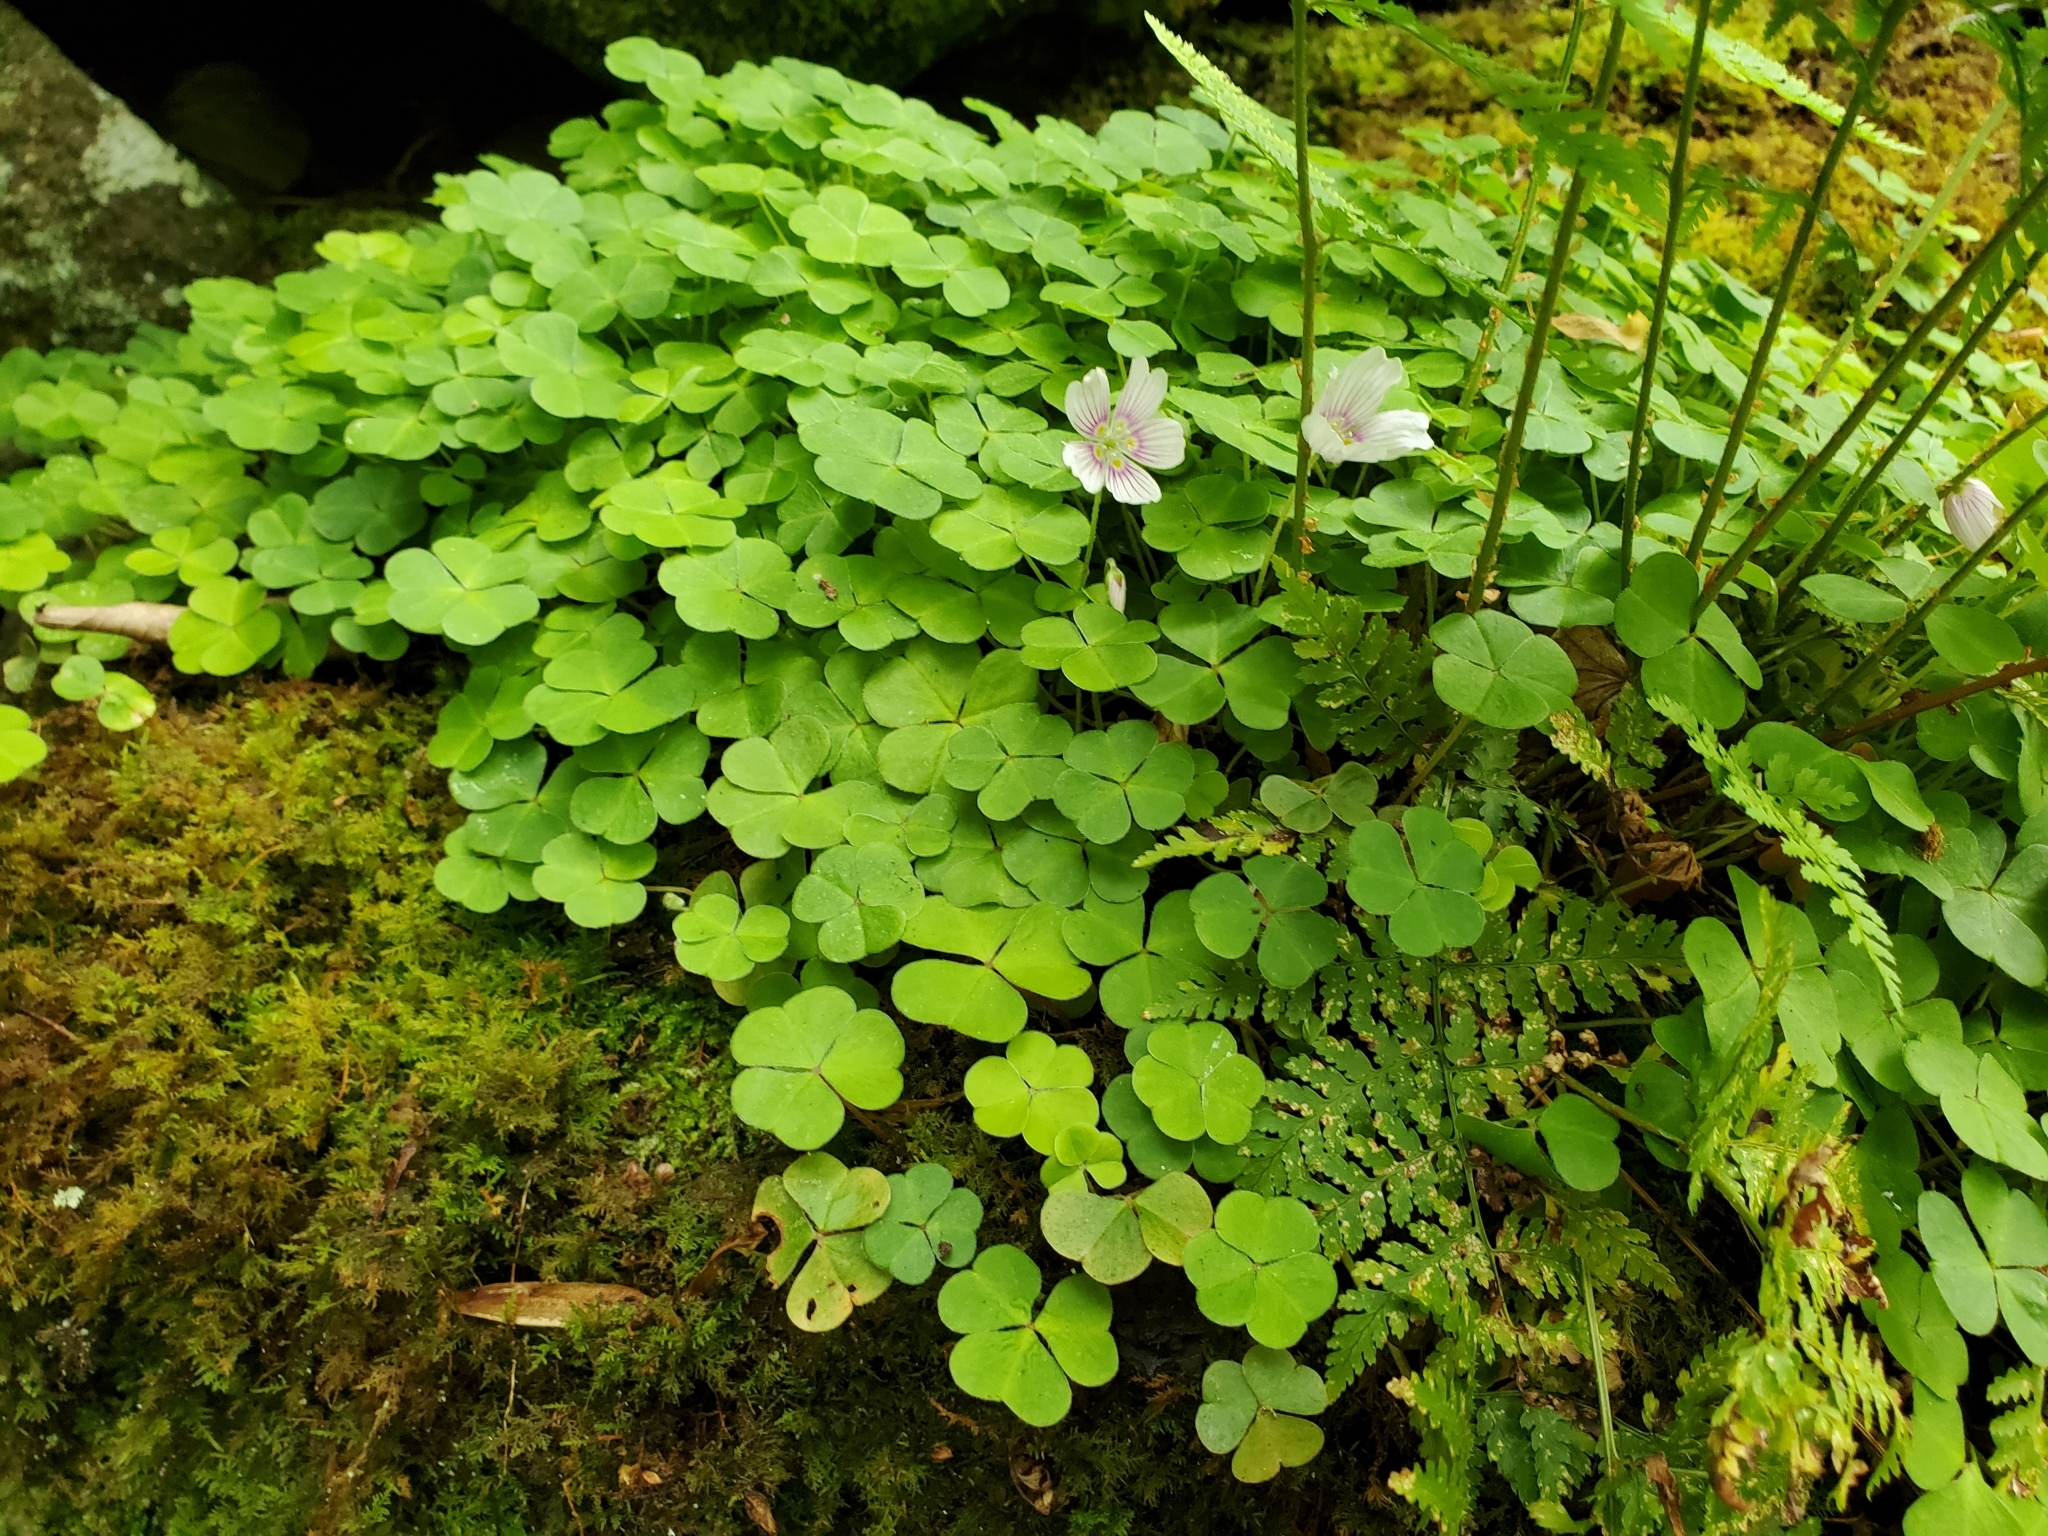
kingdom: Plantae
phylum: Tracheophyta
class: Magnoliopsida
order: Oxalidales
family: Oxalidaceae
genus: Oxalis
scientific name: Oxalis montana
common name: American wood-sorrel
